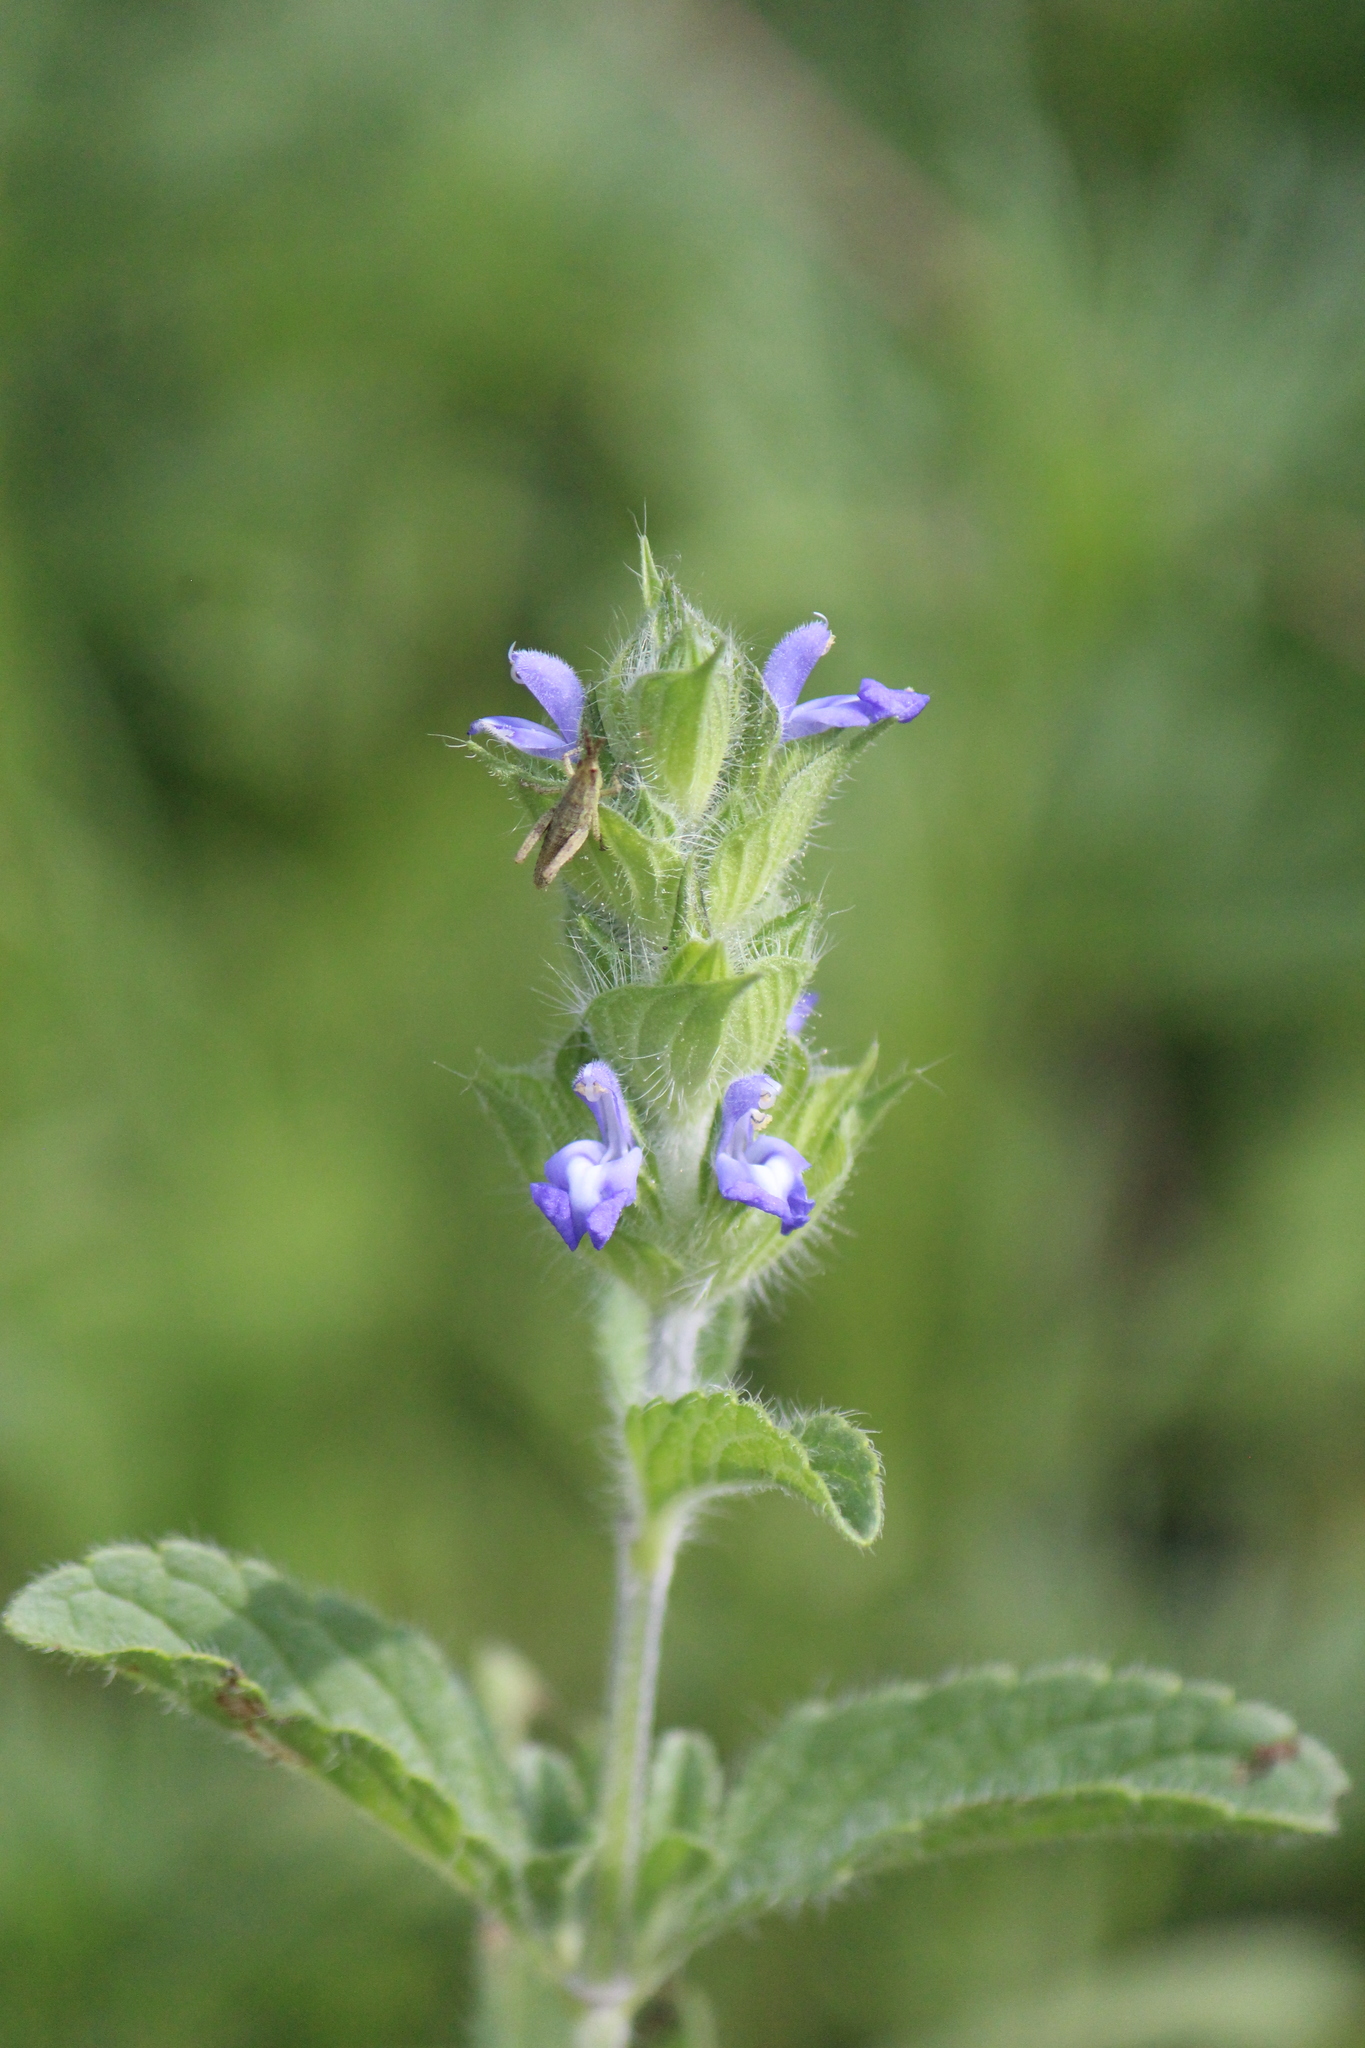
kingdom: Plantae
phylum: Tracheophyta
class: Magnoliopsida
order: Lamiales
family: Lamiaceae
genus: Salvia
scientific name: Salvia hirsuta
